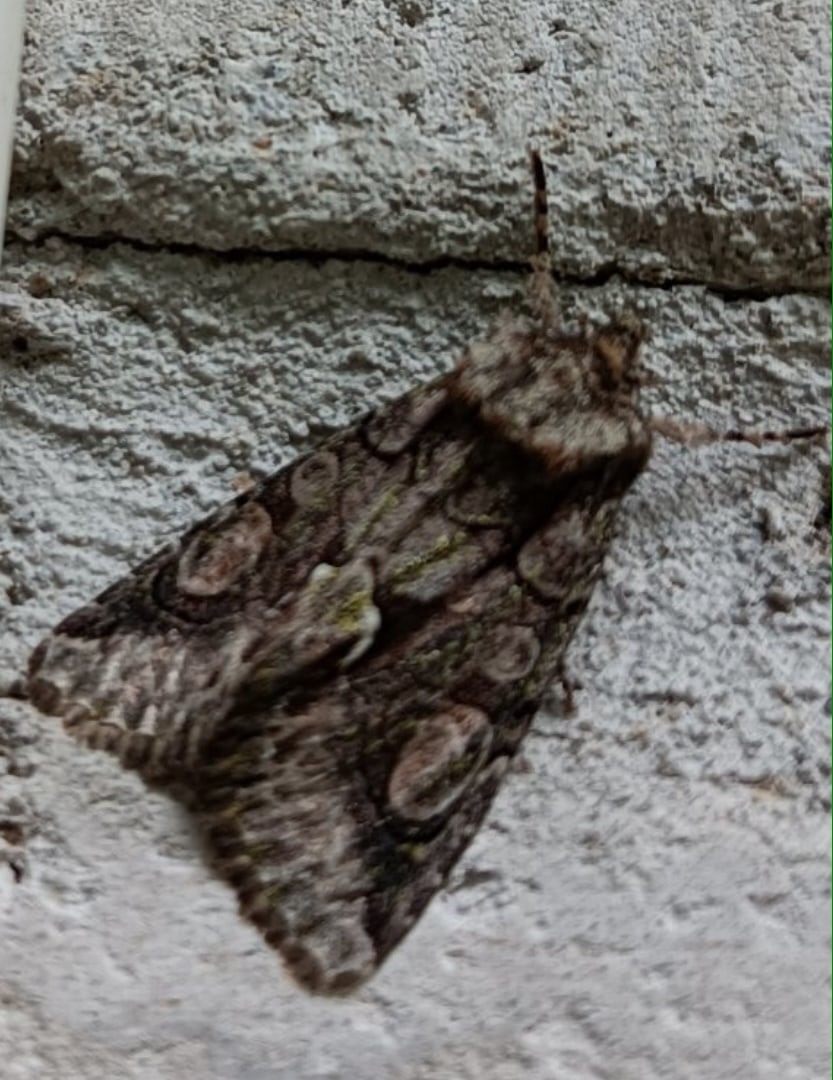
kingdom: Animalia
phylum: Arthropoda
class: Insecta
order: Lepidoptera
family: Noctuidae
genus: Allophyes
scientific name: Allophyes oxyacanthae
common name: Green-brindled crescent
